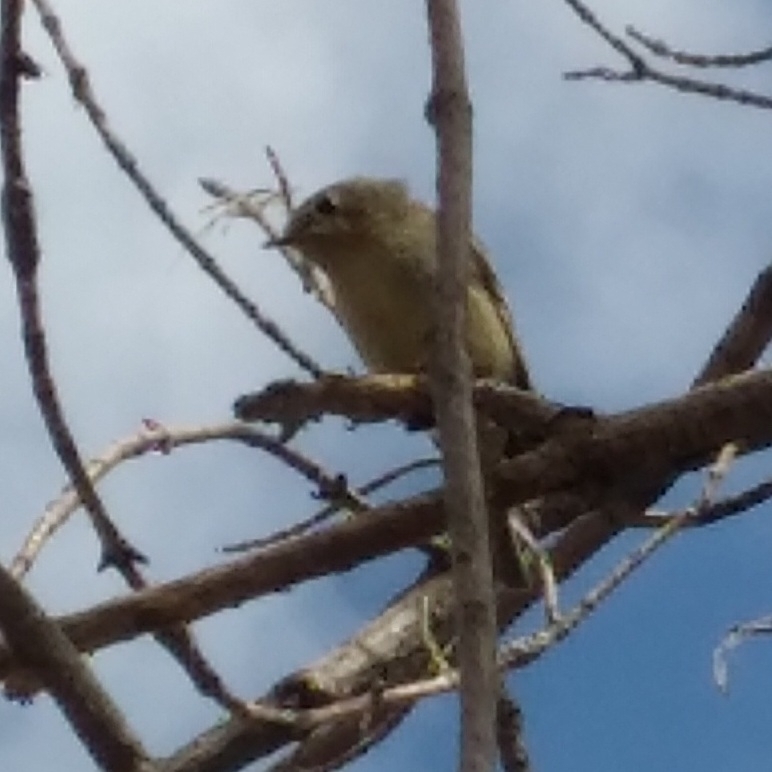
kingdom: Animalia
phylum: Chordata
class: Aves
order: Passeriformes
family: Regulidae
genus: Regulus
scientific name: Regulus calendula
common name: Ruby-crowned kinglet
